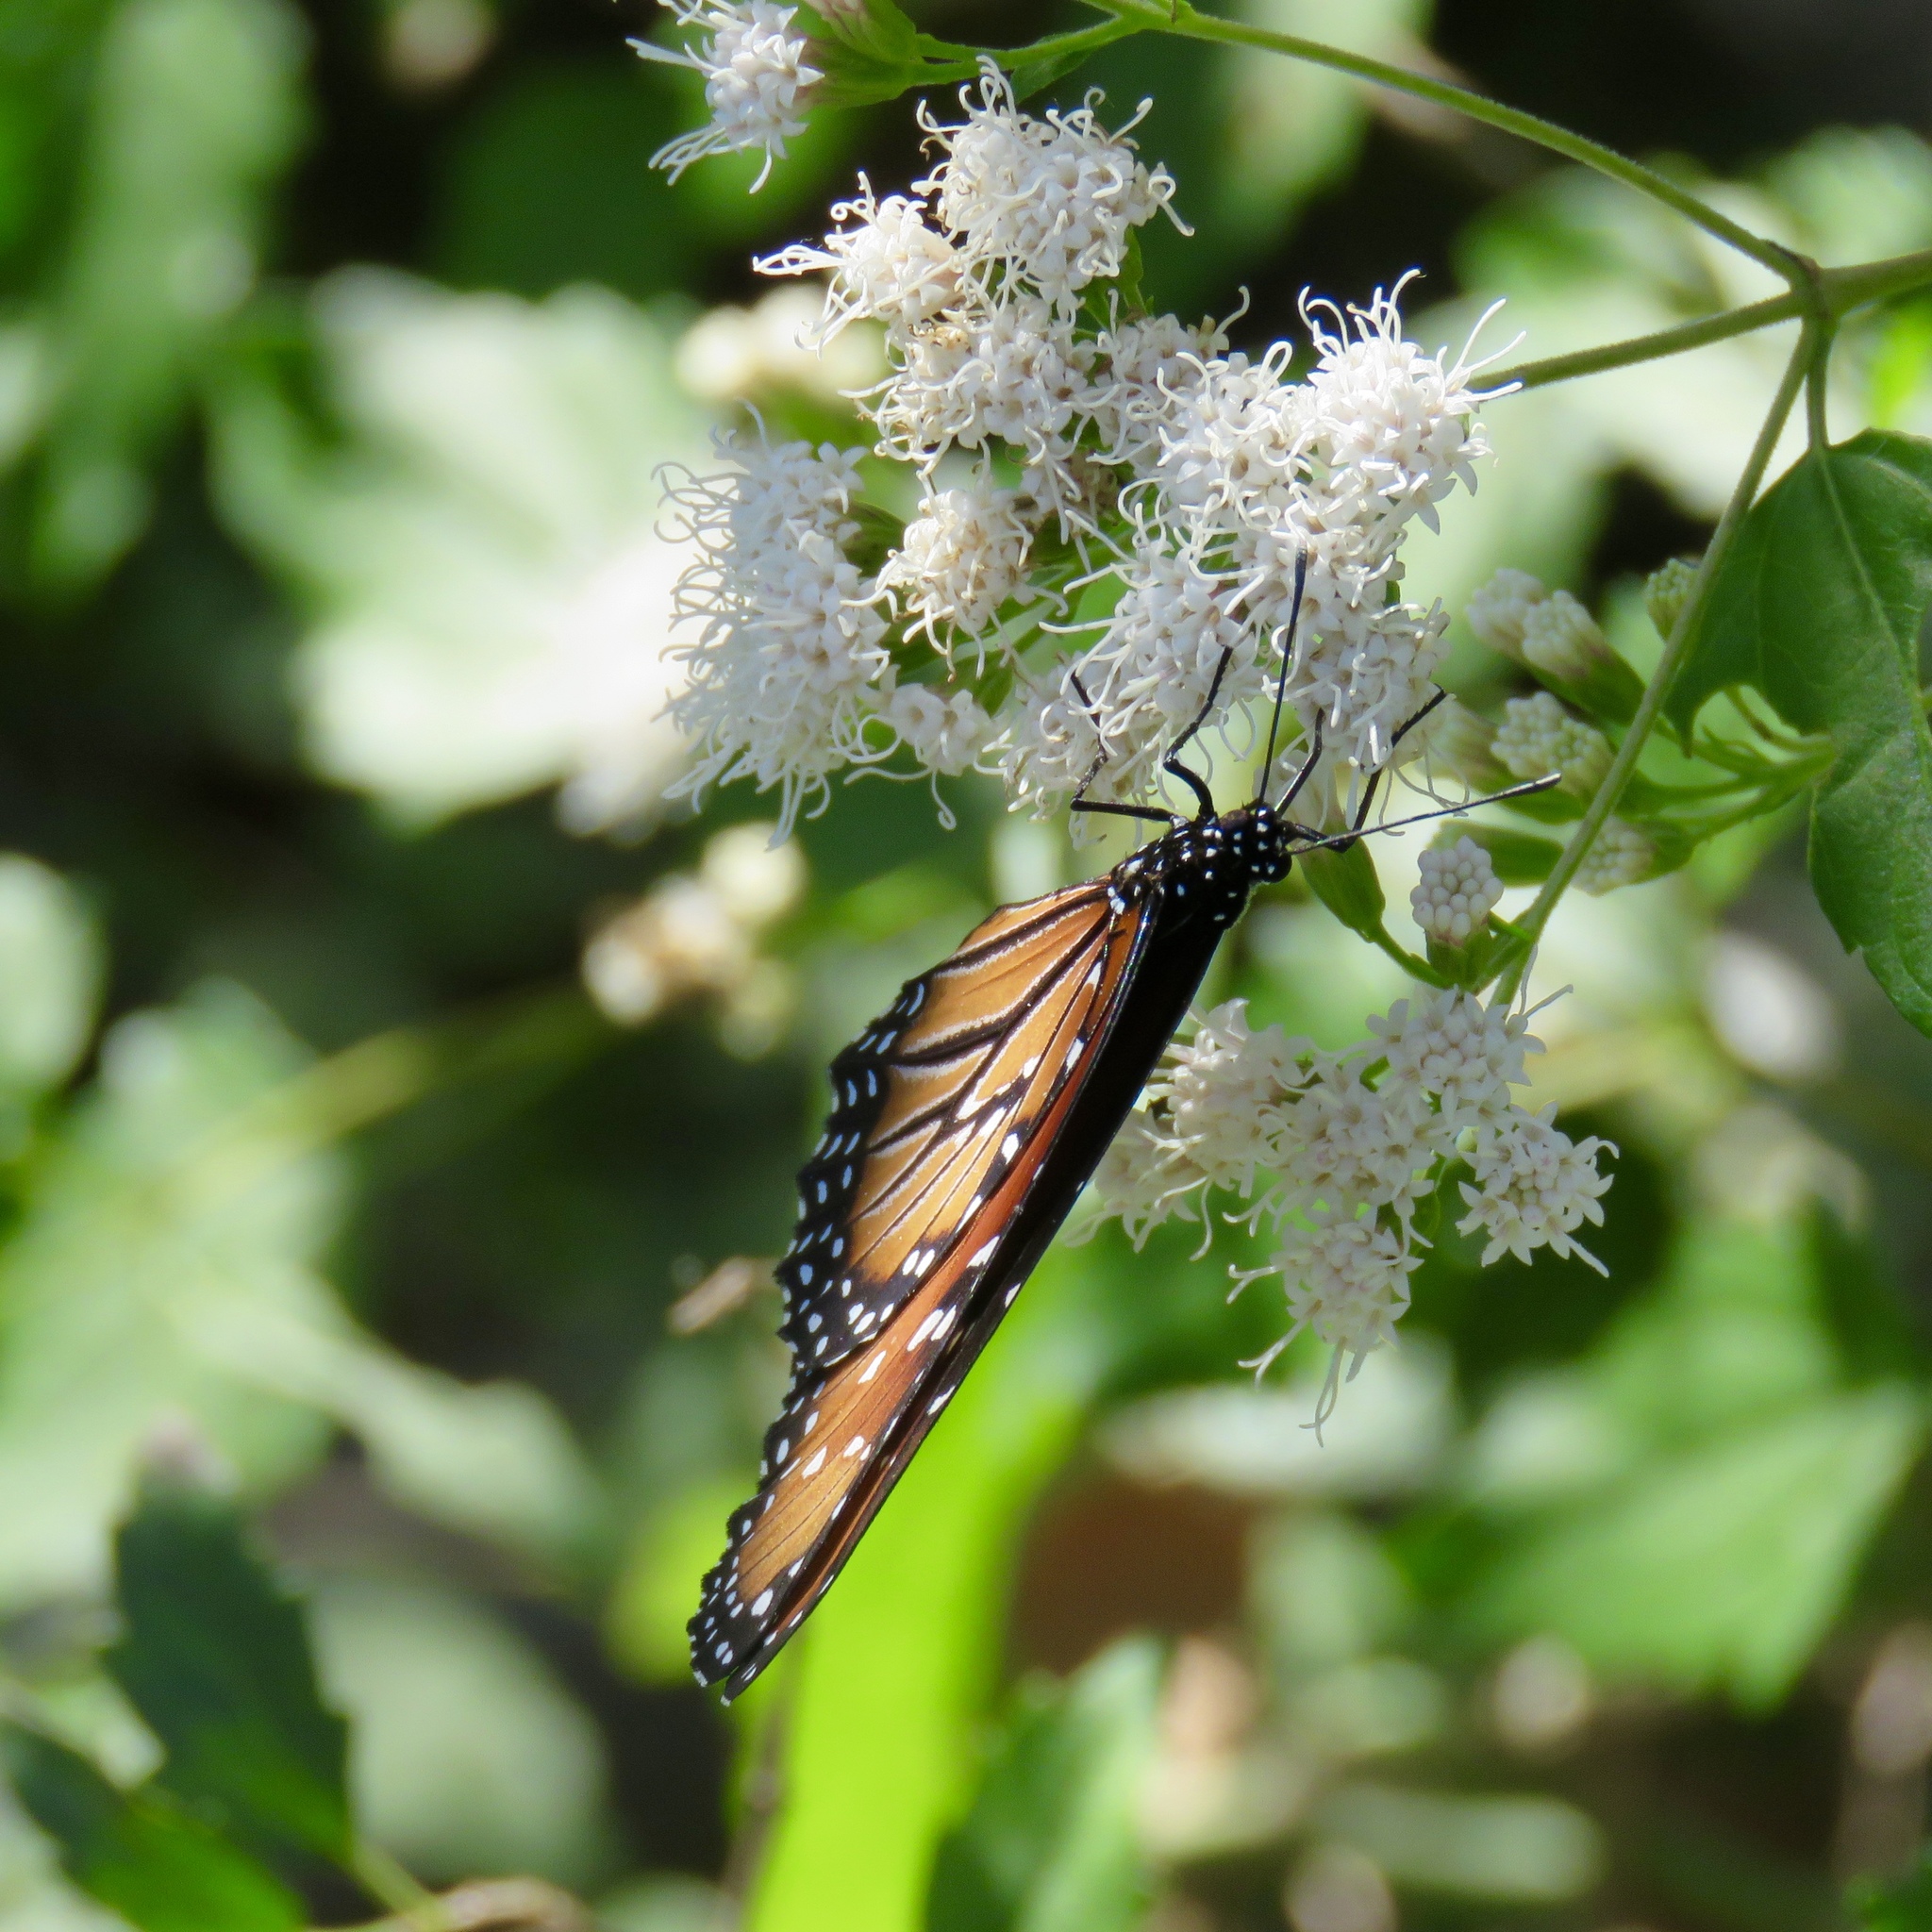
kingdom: Animalia
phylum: Arthropoda
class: Insecta
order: Lepidoptera
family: Nymphalidae
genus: Danaus
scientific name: Danaus gilippus
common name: Queen
